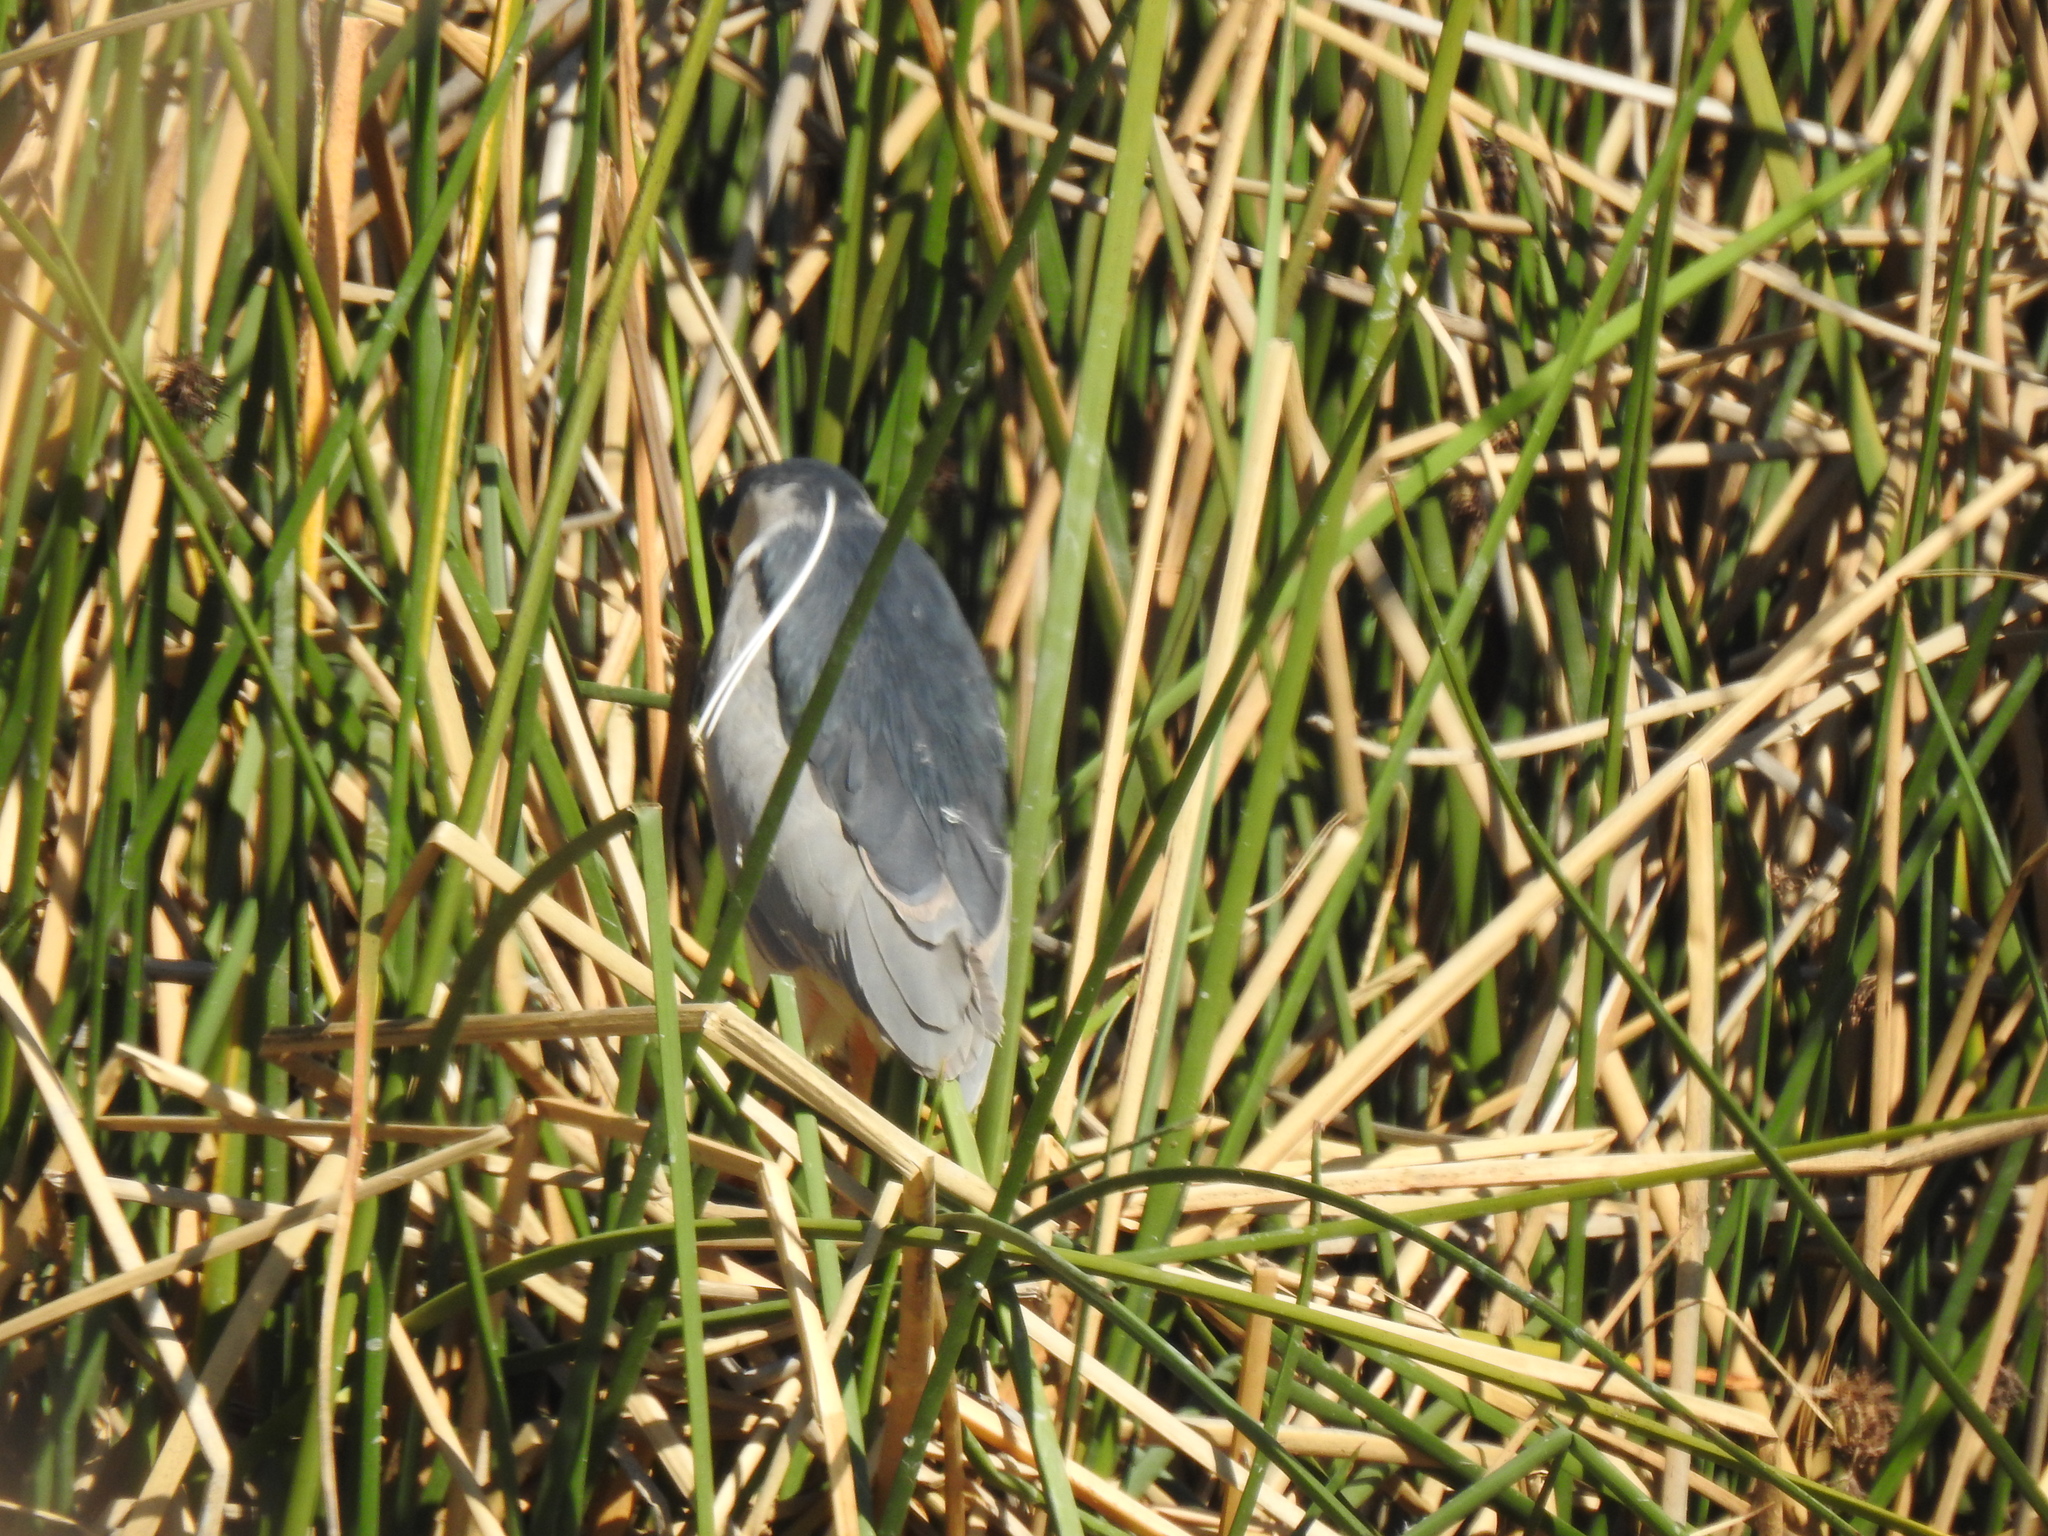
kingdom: Animalia
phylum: Chordata
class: Aves
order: Pelecaniformes
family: Ardeidae
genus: Nycticorax
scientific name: Nycticorax nycticorax
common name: Black-crowned night heron
